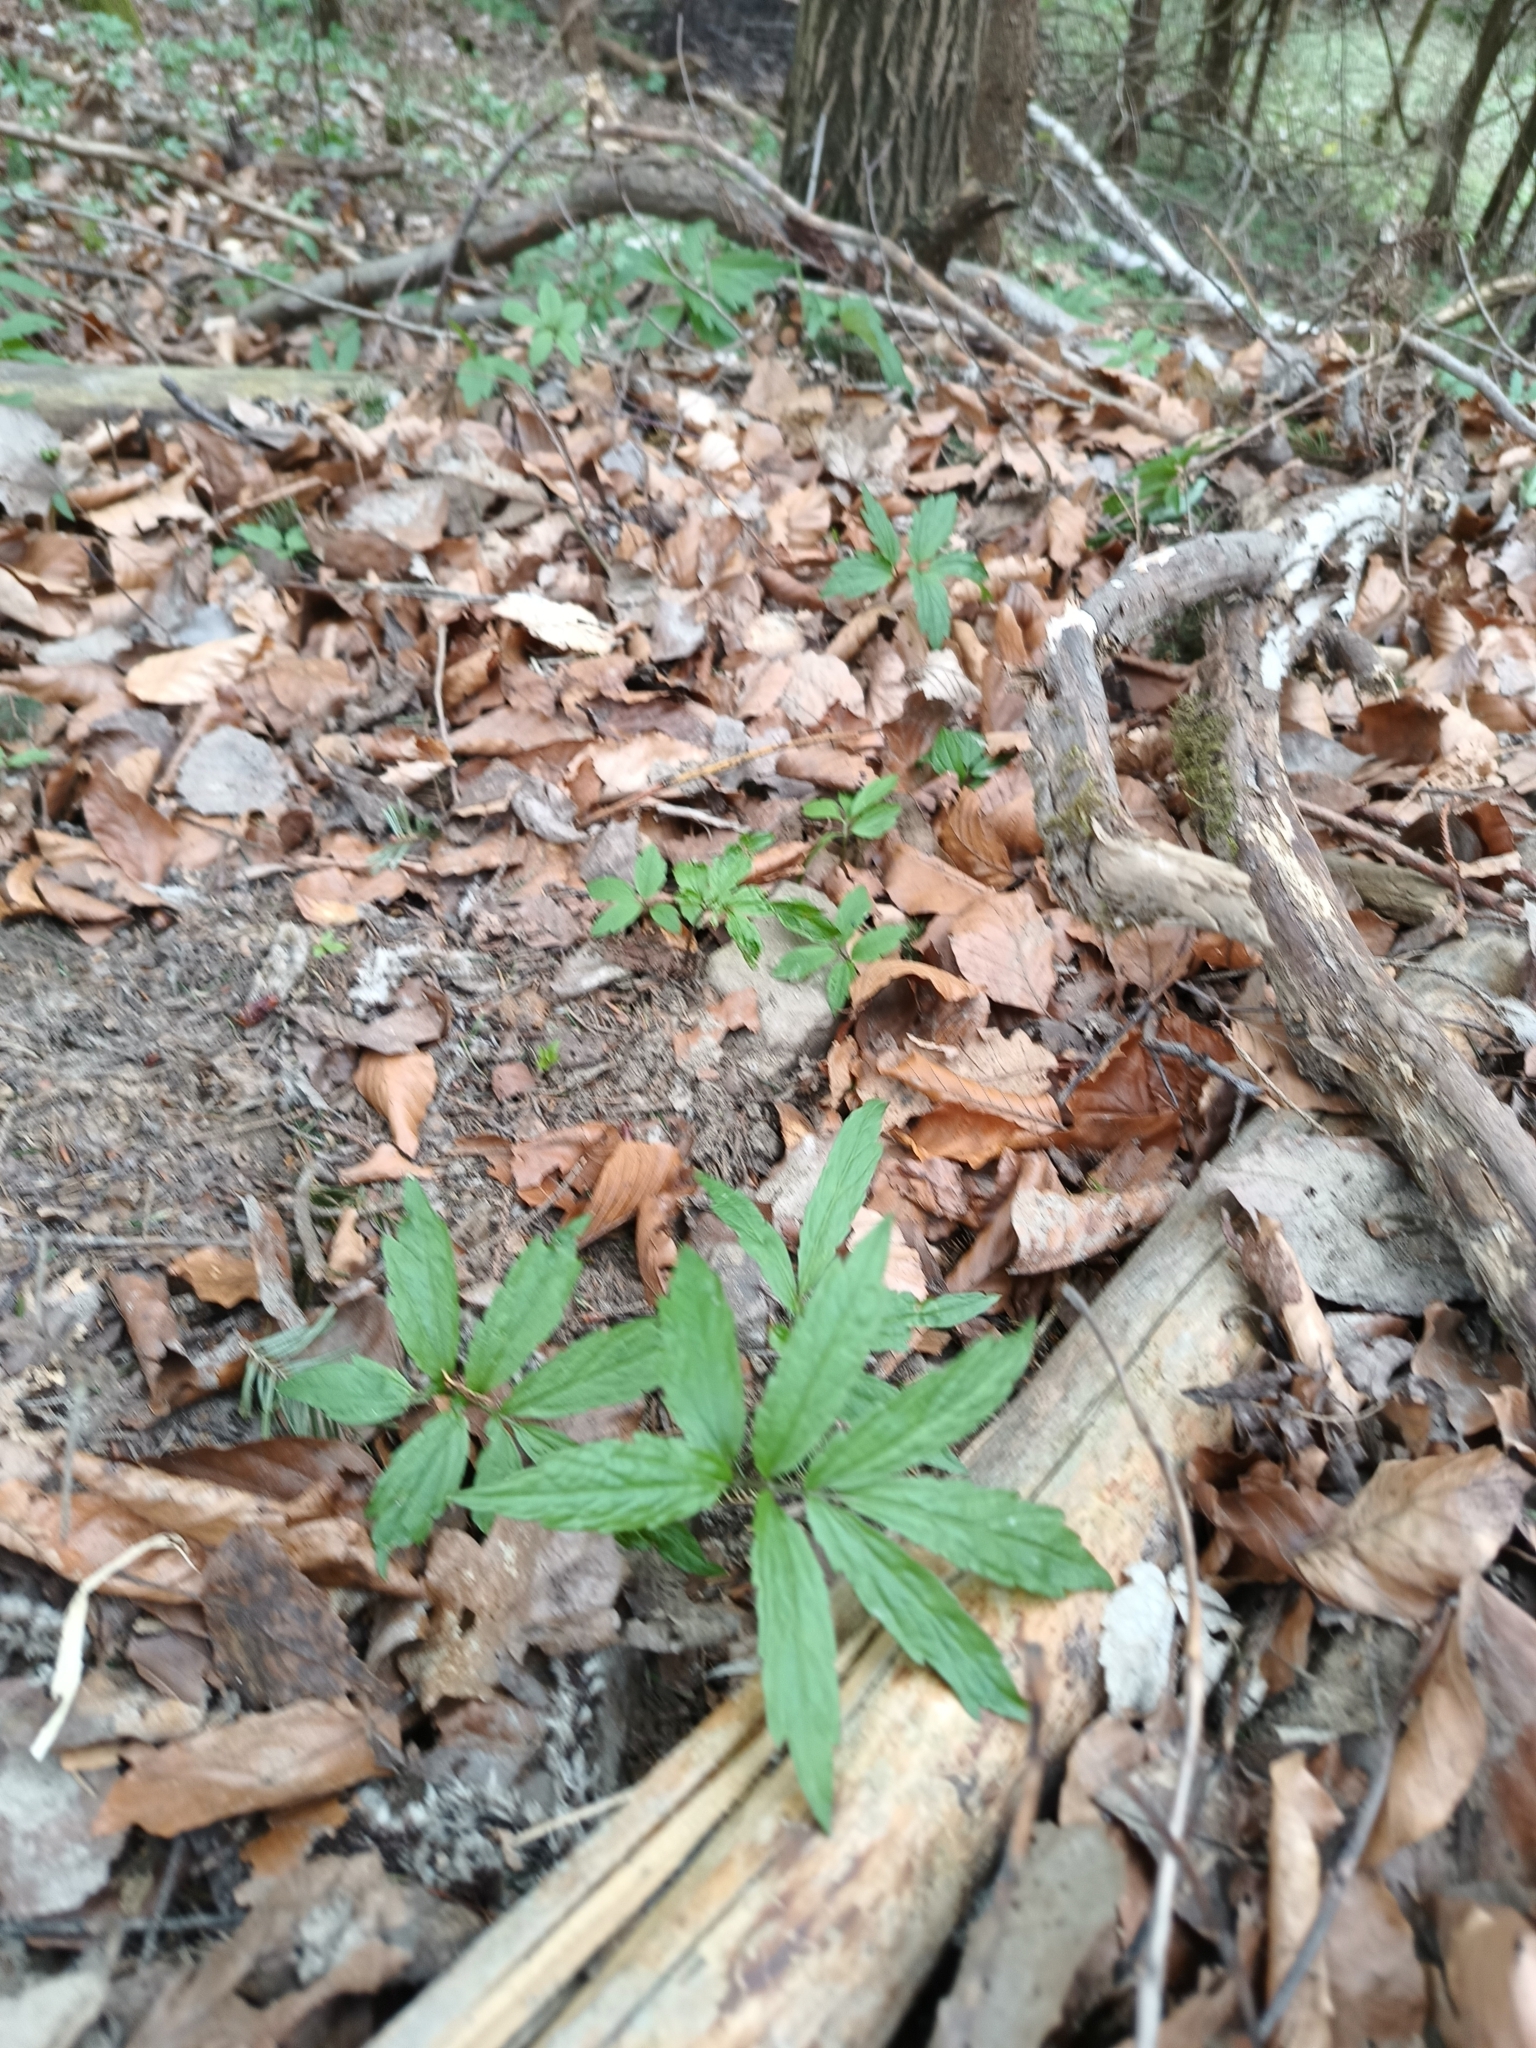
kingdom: Plantae
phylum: Tracheophyta
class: Magnoliopsida
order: Brassicales
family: Brassicaceae
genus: Cardamine
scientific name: Cardamine bulbifera
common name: Coralroot bittercress
